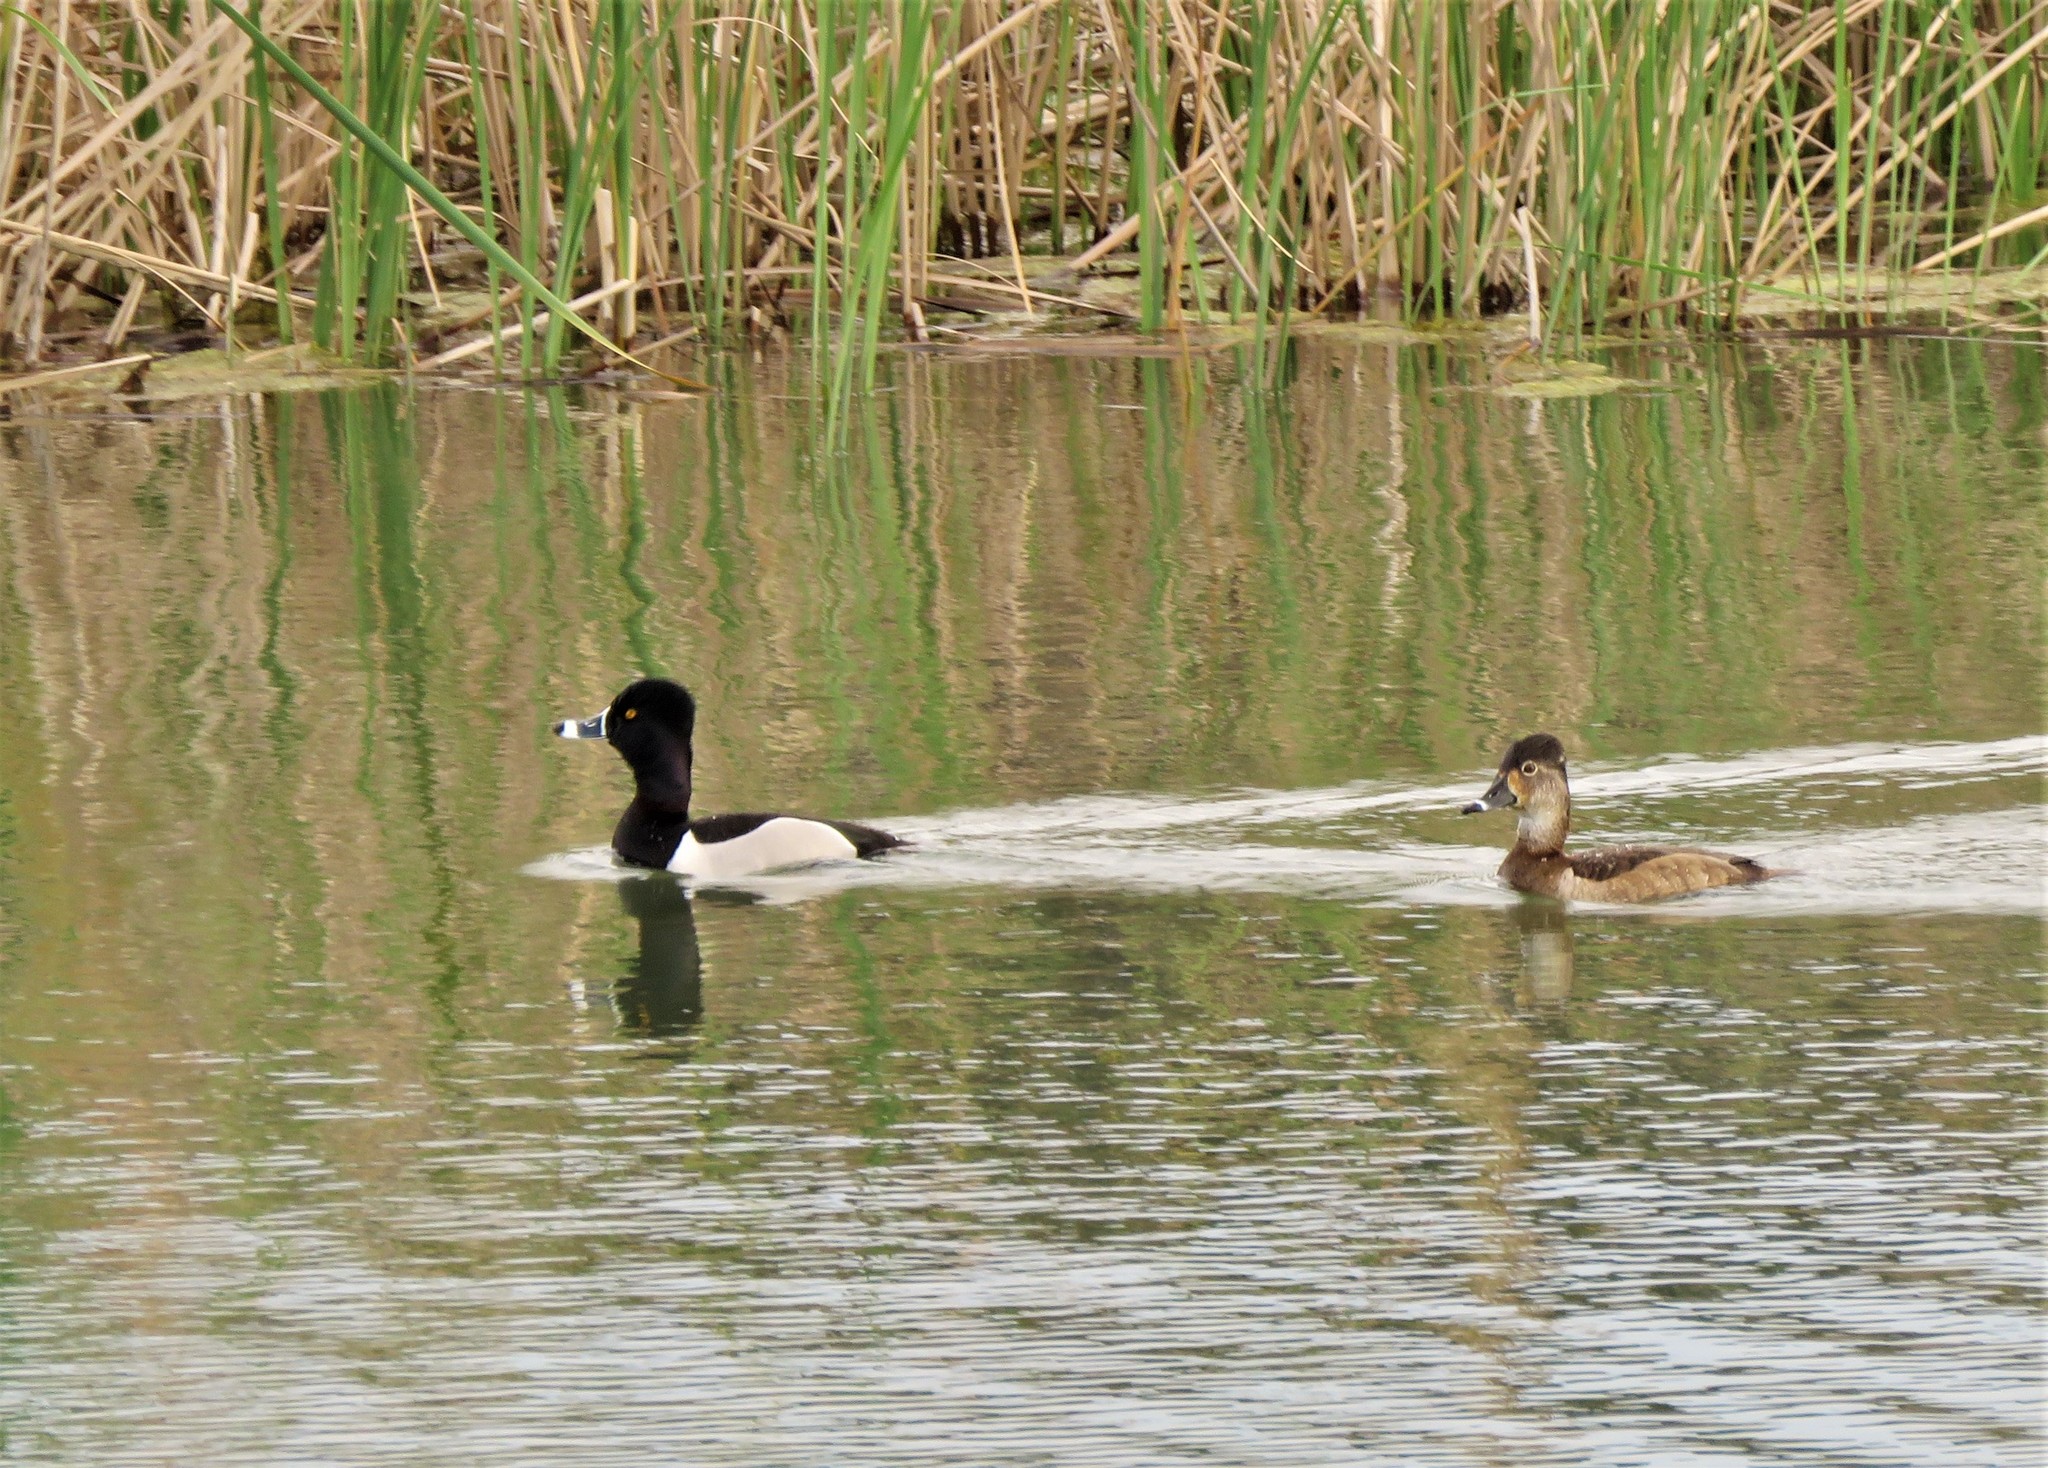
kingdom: Animalia
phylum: Chordata
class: Aves
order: Anseriformes
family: Anatidae
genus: Aythya
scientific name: Aythya collaris
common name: Ring-necked duck
